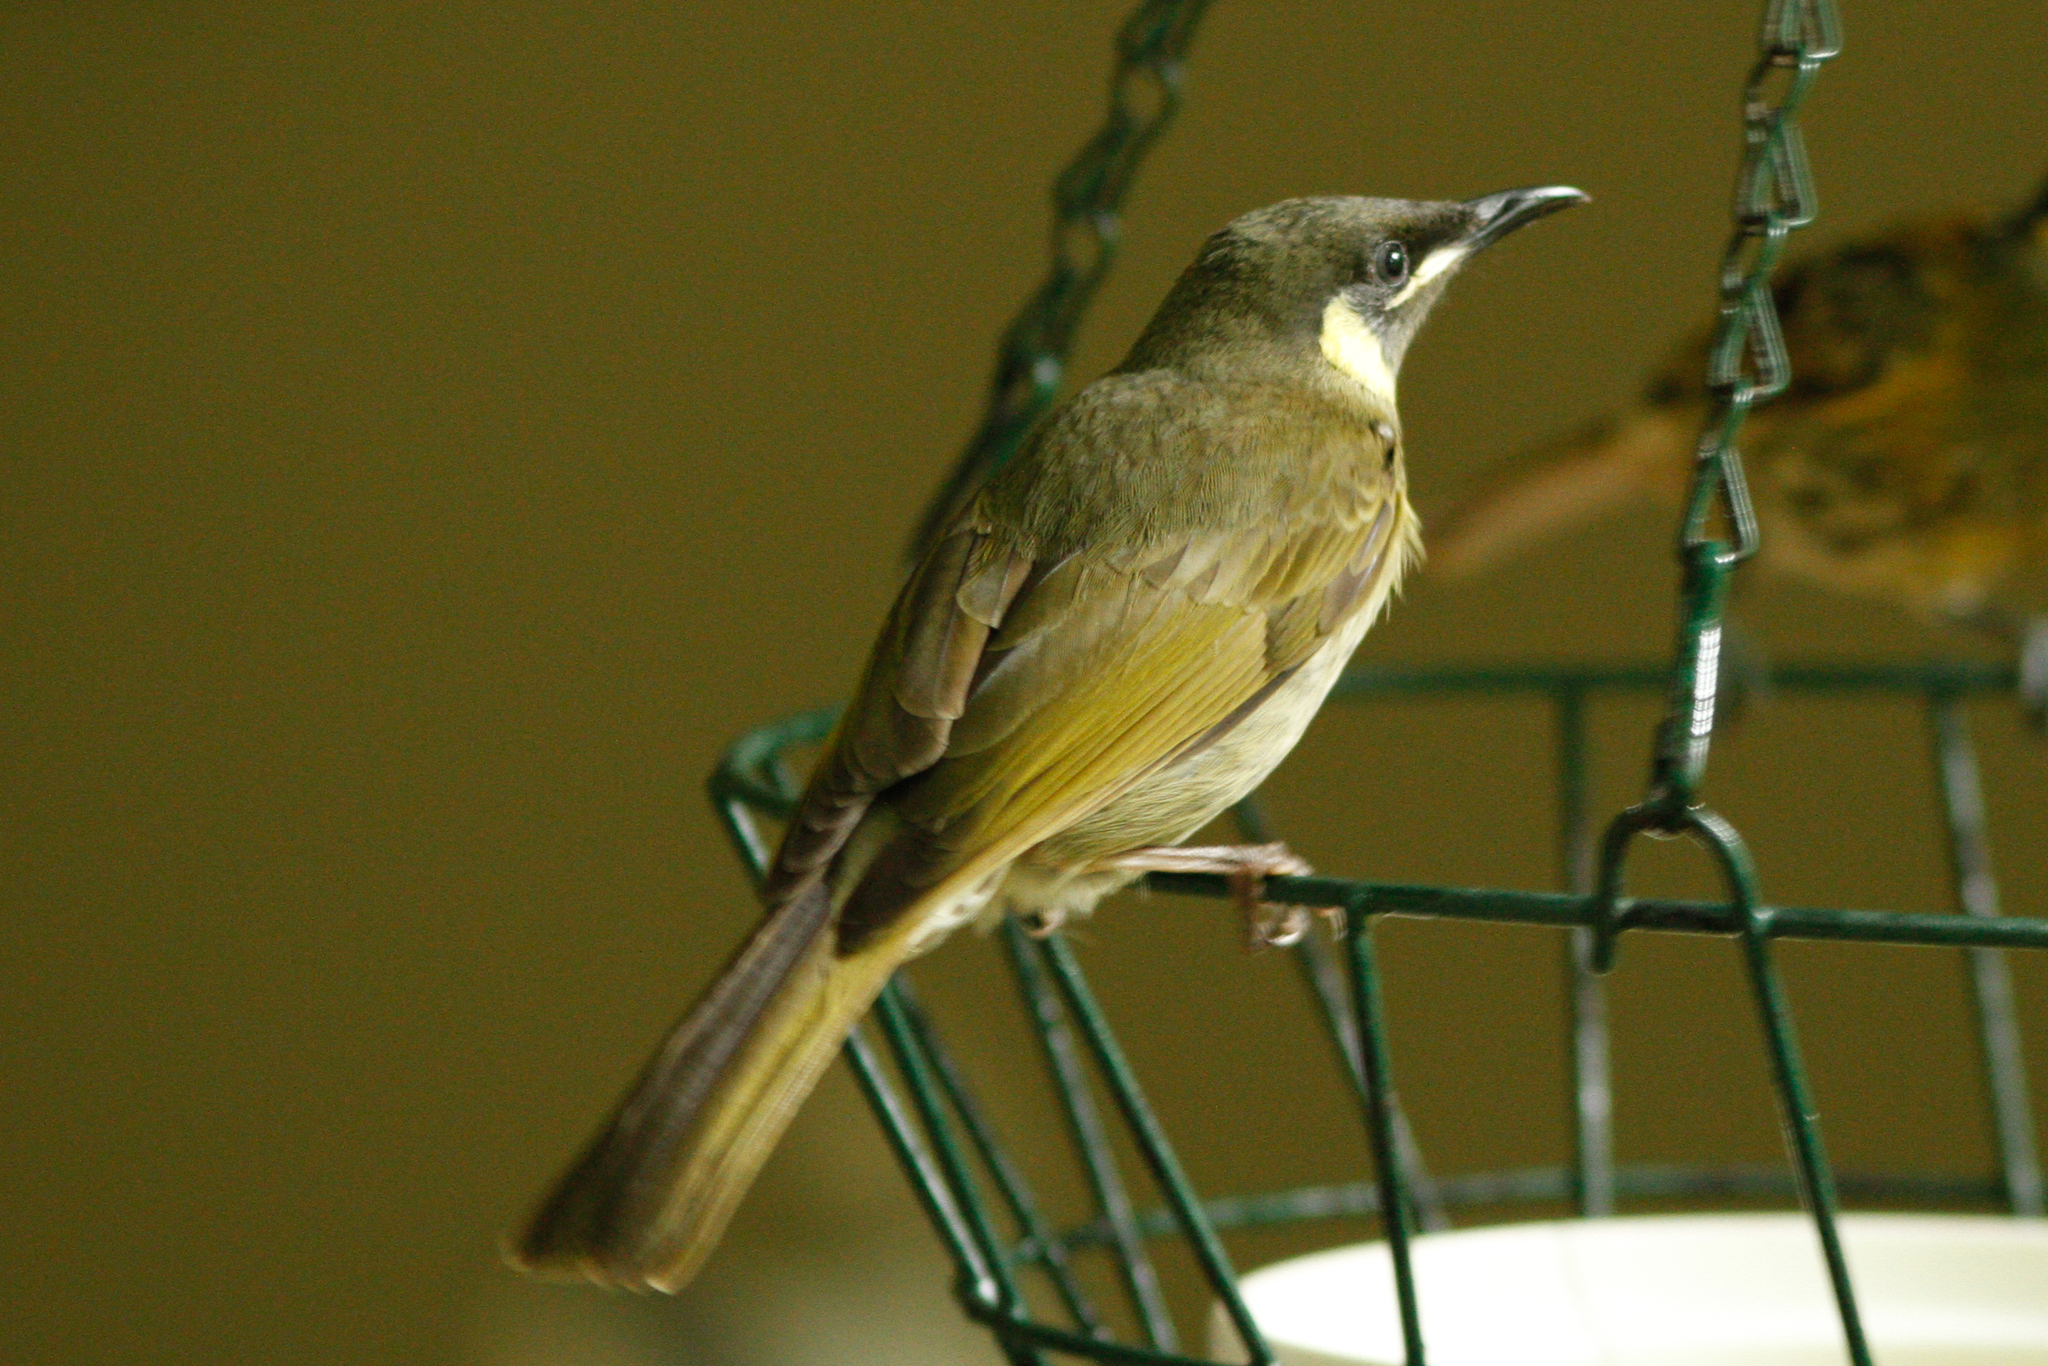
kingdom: Animalia
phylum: Chordata
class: Aves
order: Passeriformes
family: Meliphagidae
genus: Meliphaga
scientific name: Meliphaga lewinii
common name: Lewin's honeyeater
